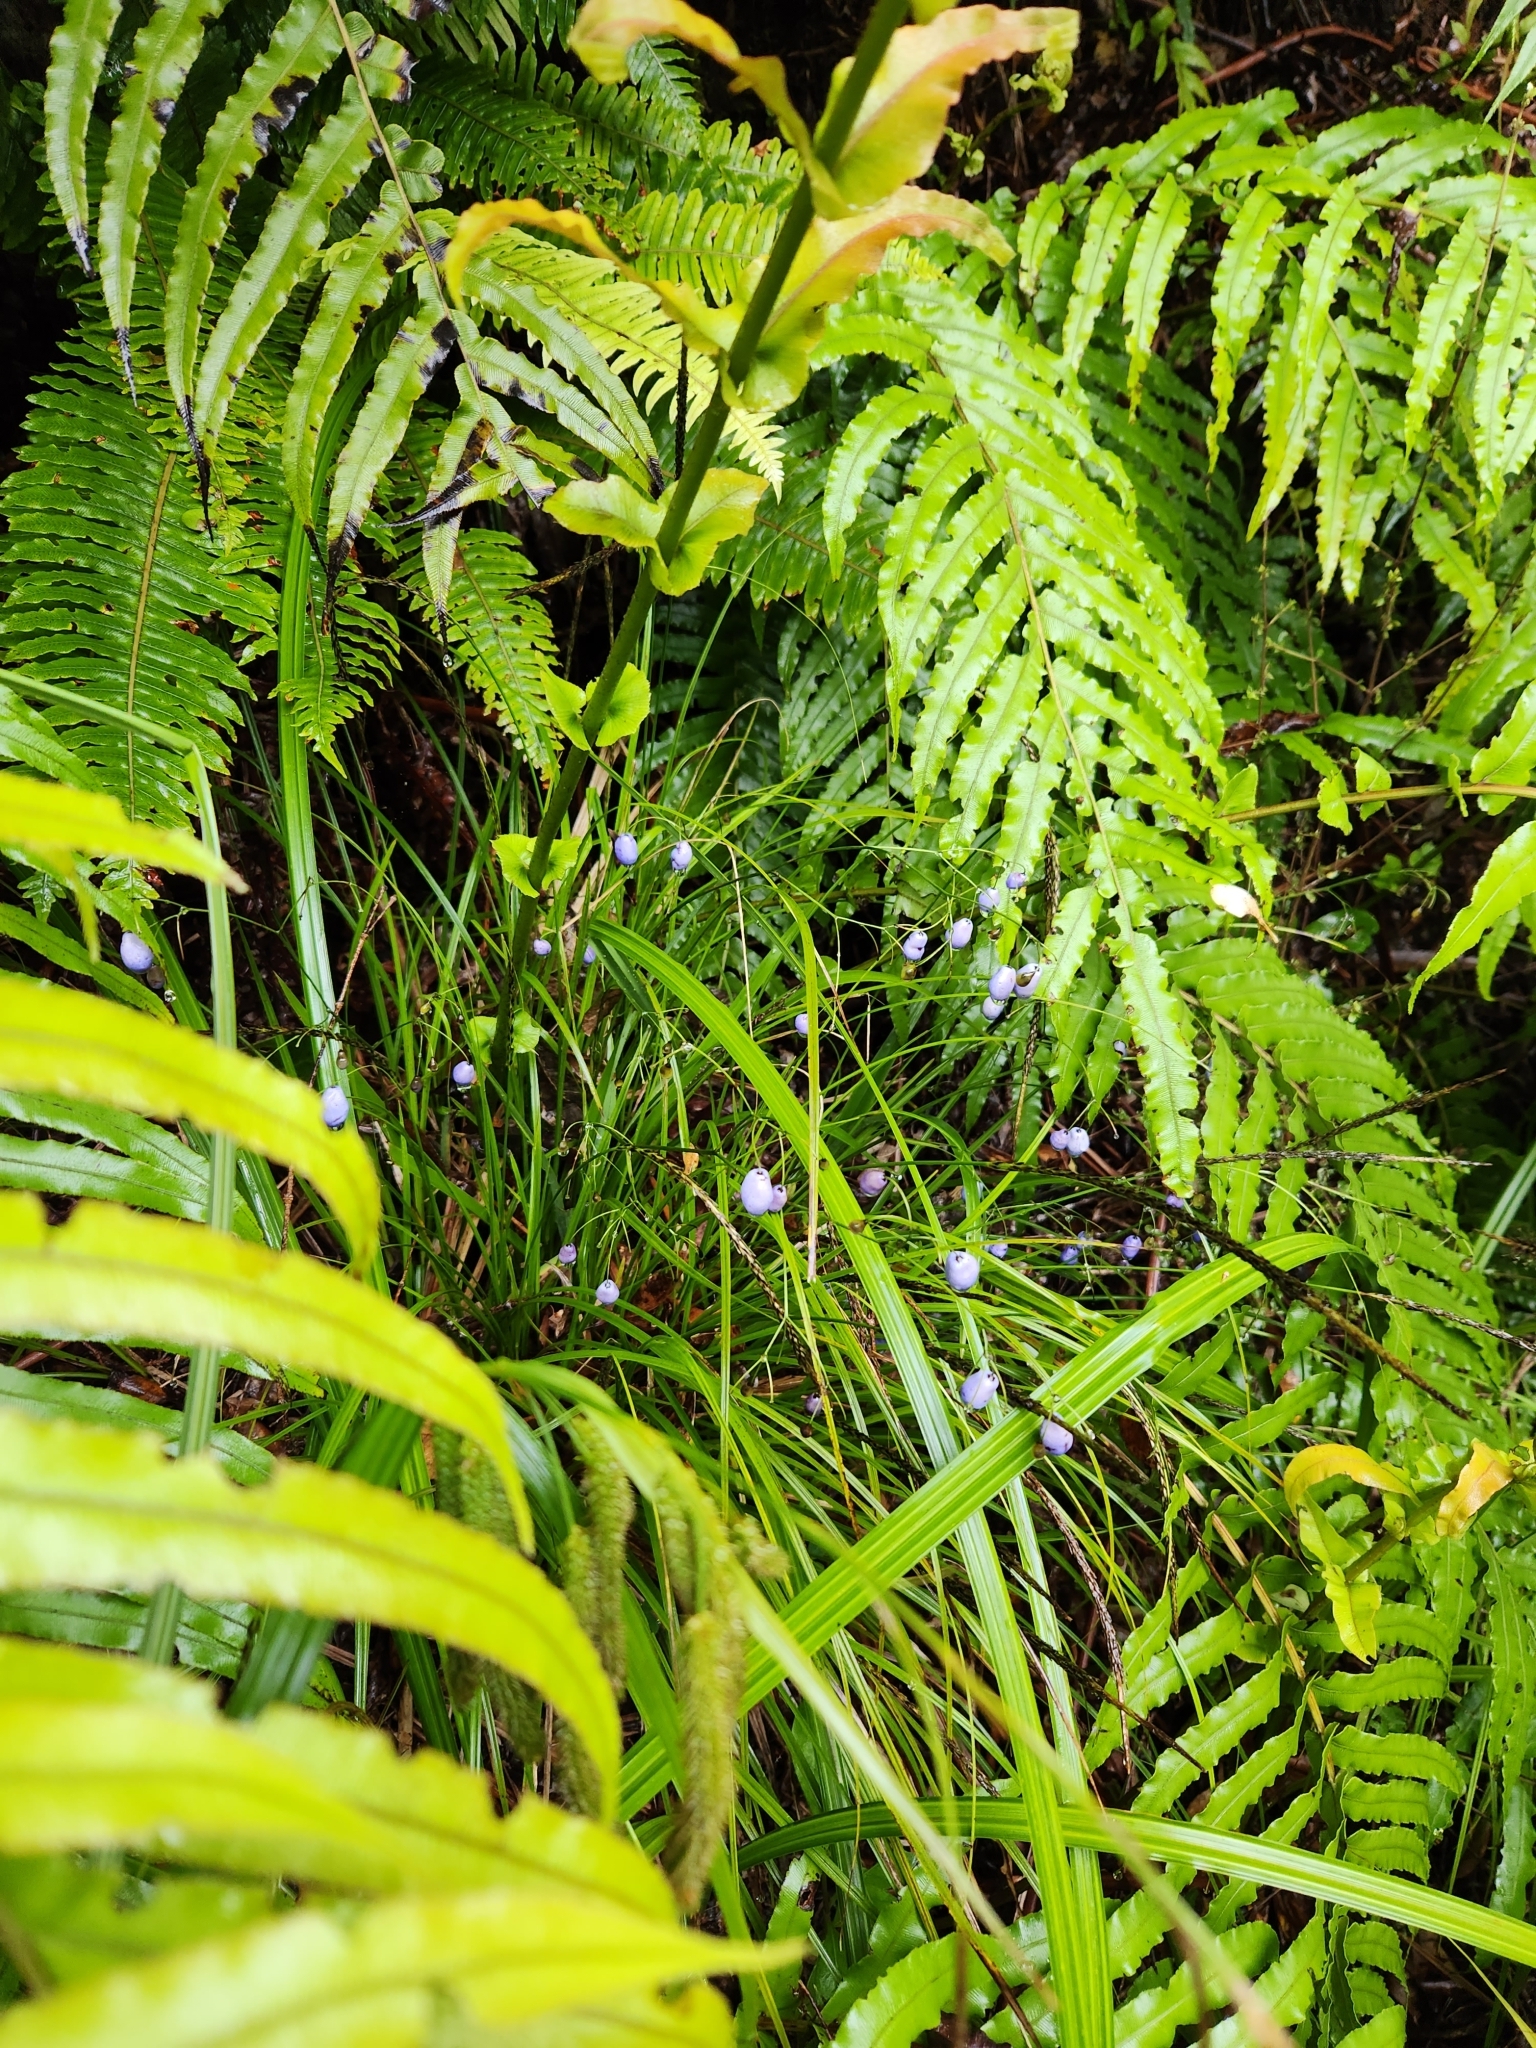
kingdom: Plantae
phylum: Tracheophyta
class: Liliopsida
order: Asparagales
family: Asphodelaceae
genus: Dianella
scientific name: Dianella nigra
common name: New zealand-blueberry
